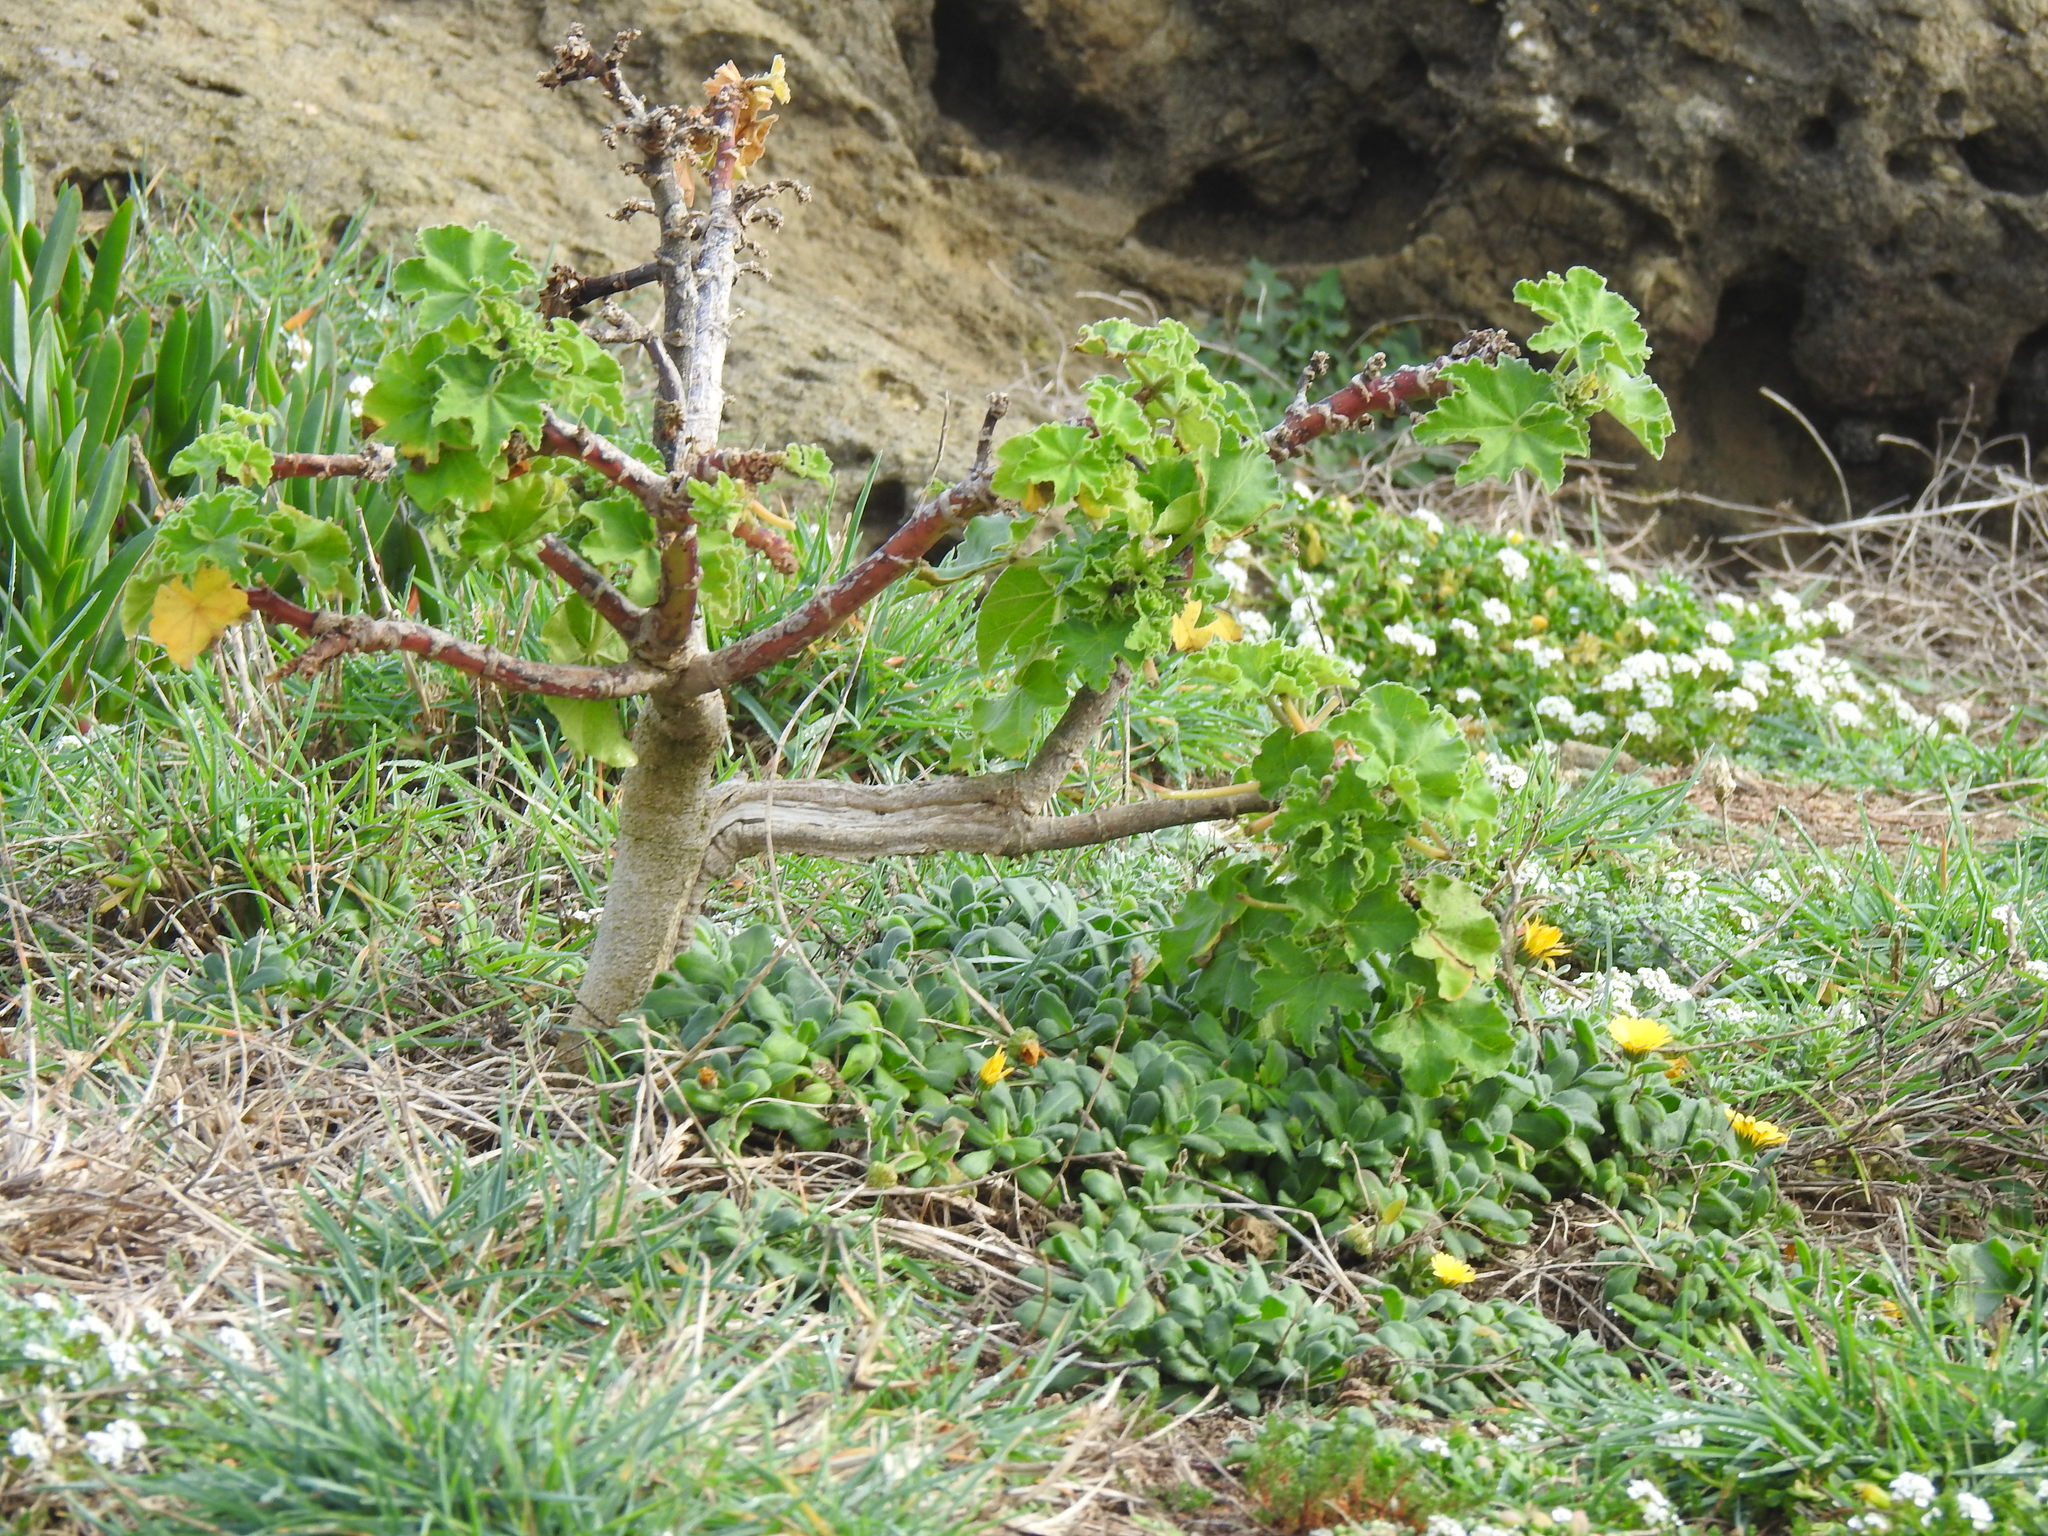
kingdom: Plantae
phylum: Tracheophyta
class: Magnoliopsida
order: Malvales
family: Malvaceae
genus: Malva
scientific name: Malva arborea
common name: Tree mallow
